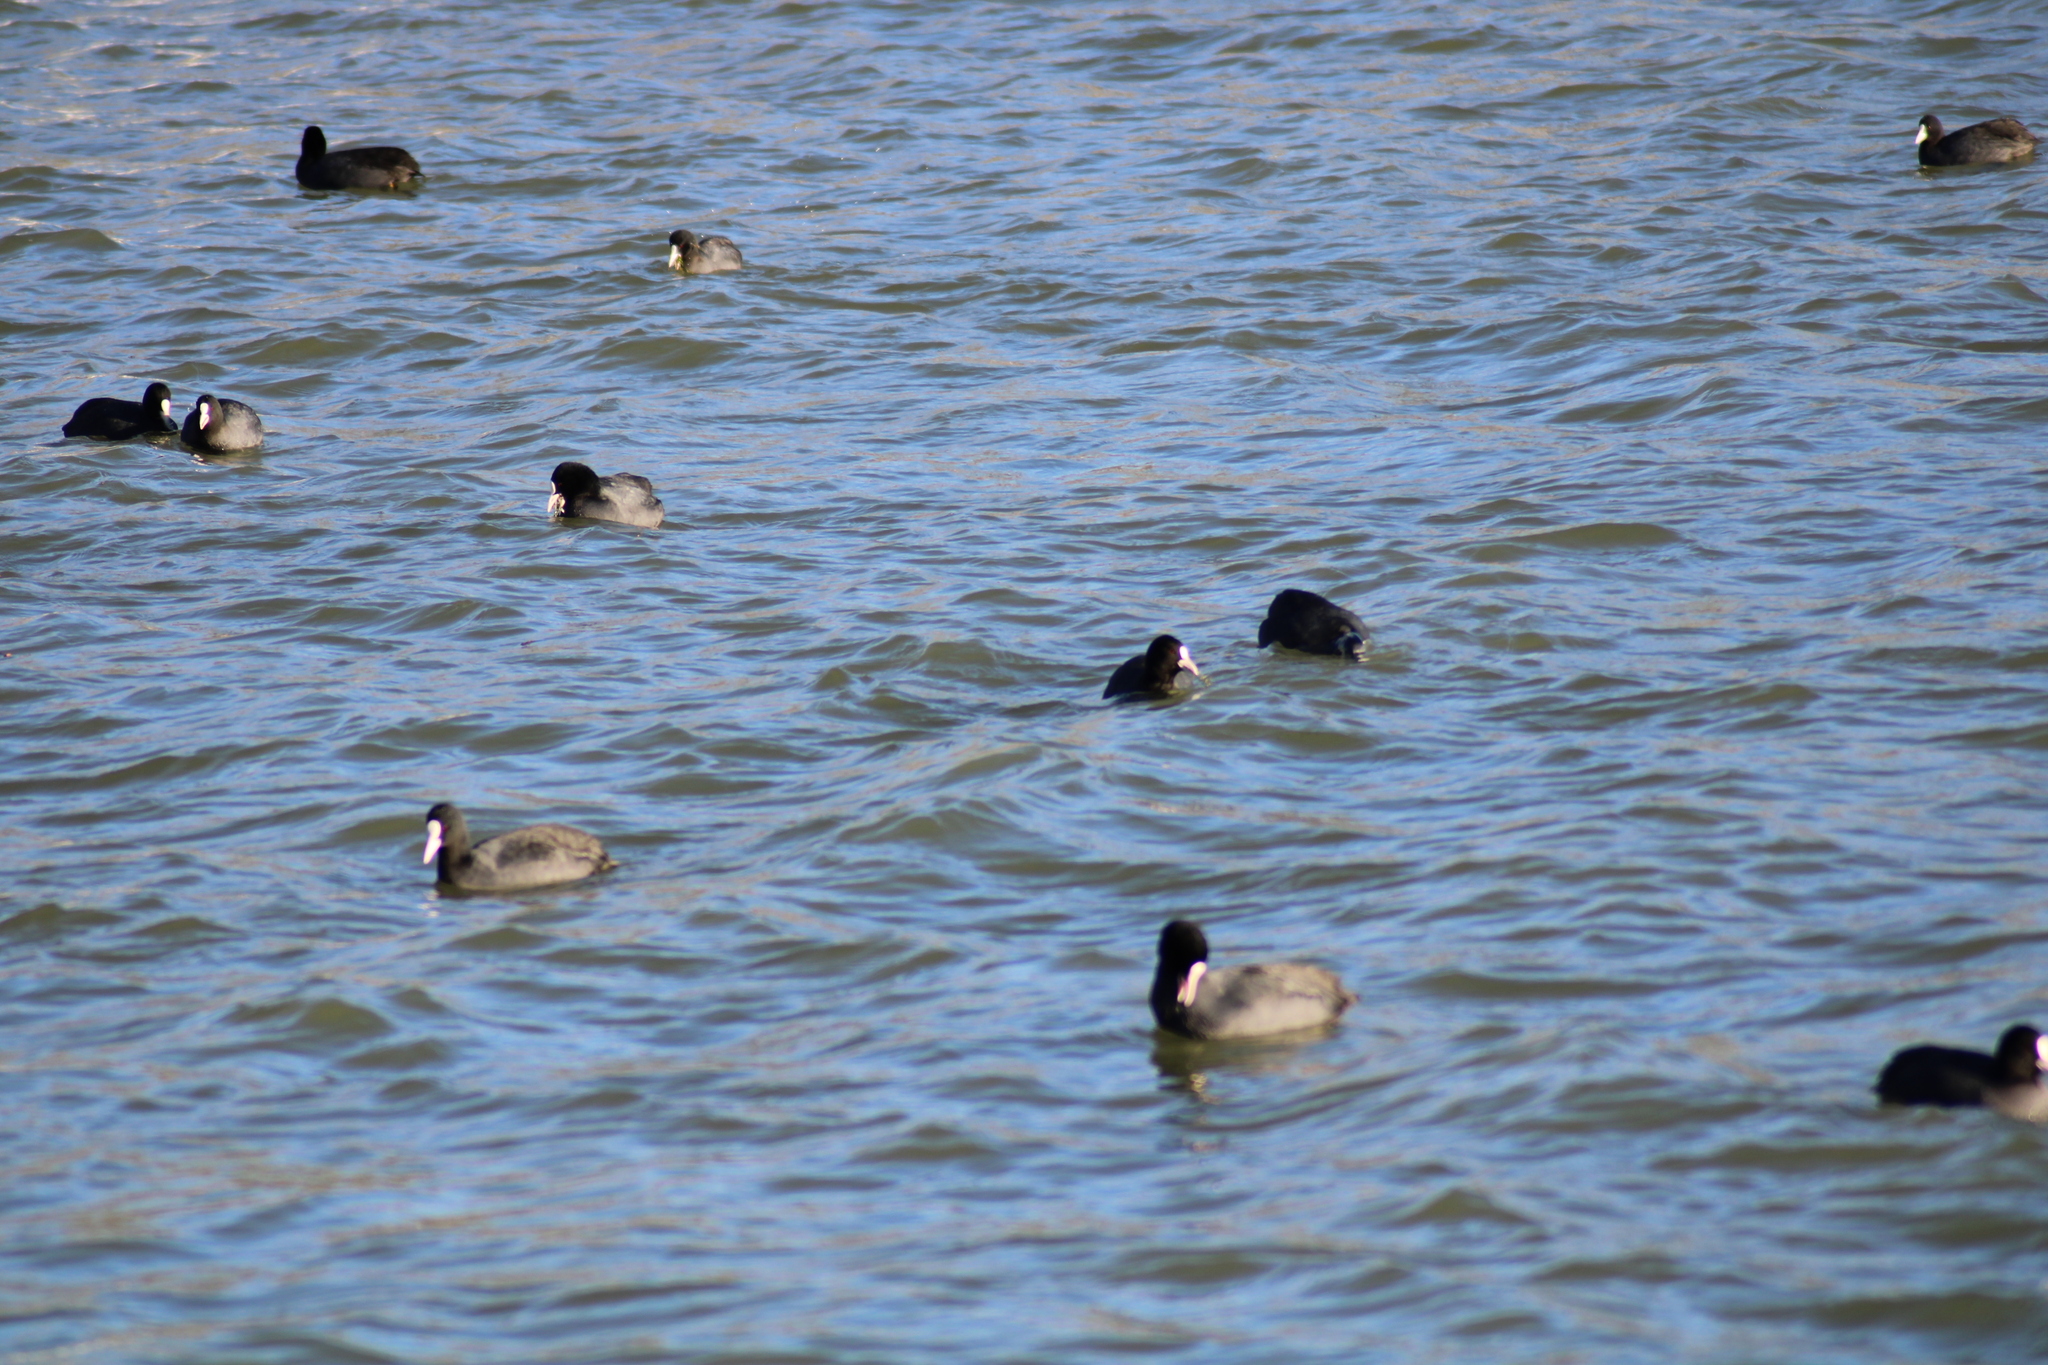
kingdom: Animalia
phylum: Chordata
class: Aves
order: Gruiformes
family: Rallidae
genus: Fulica
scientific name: Fulica atra
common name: Eurasian coot
